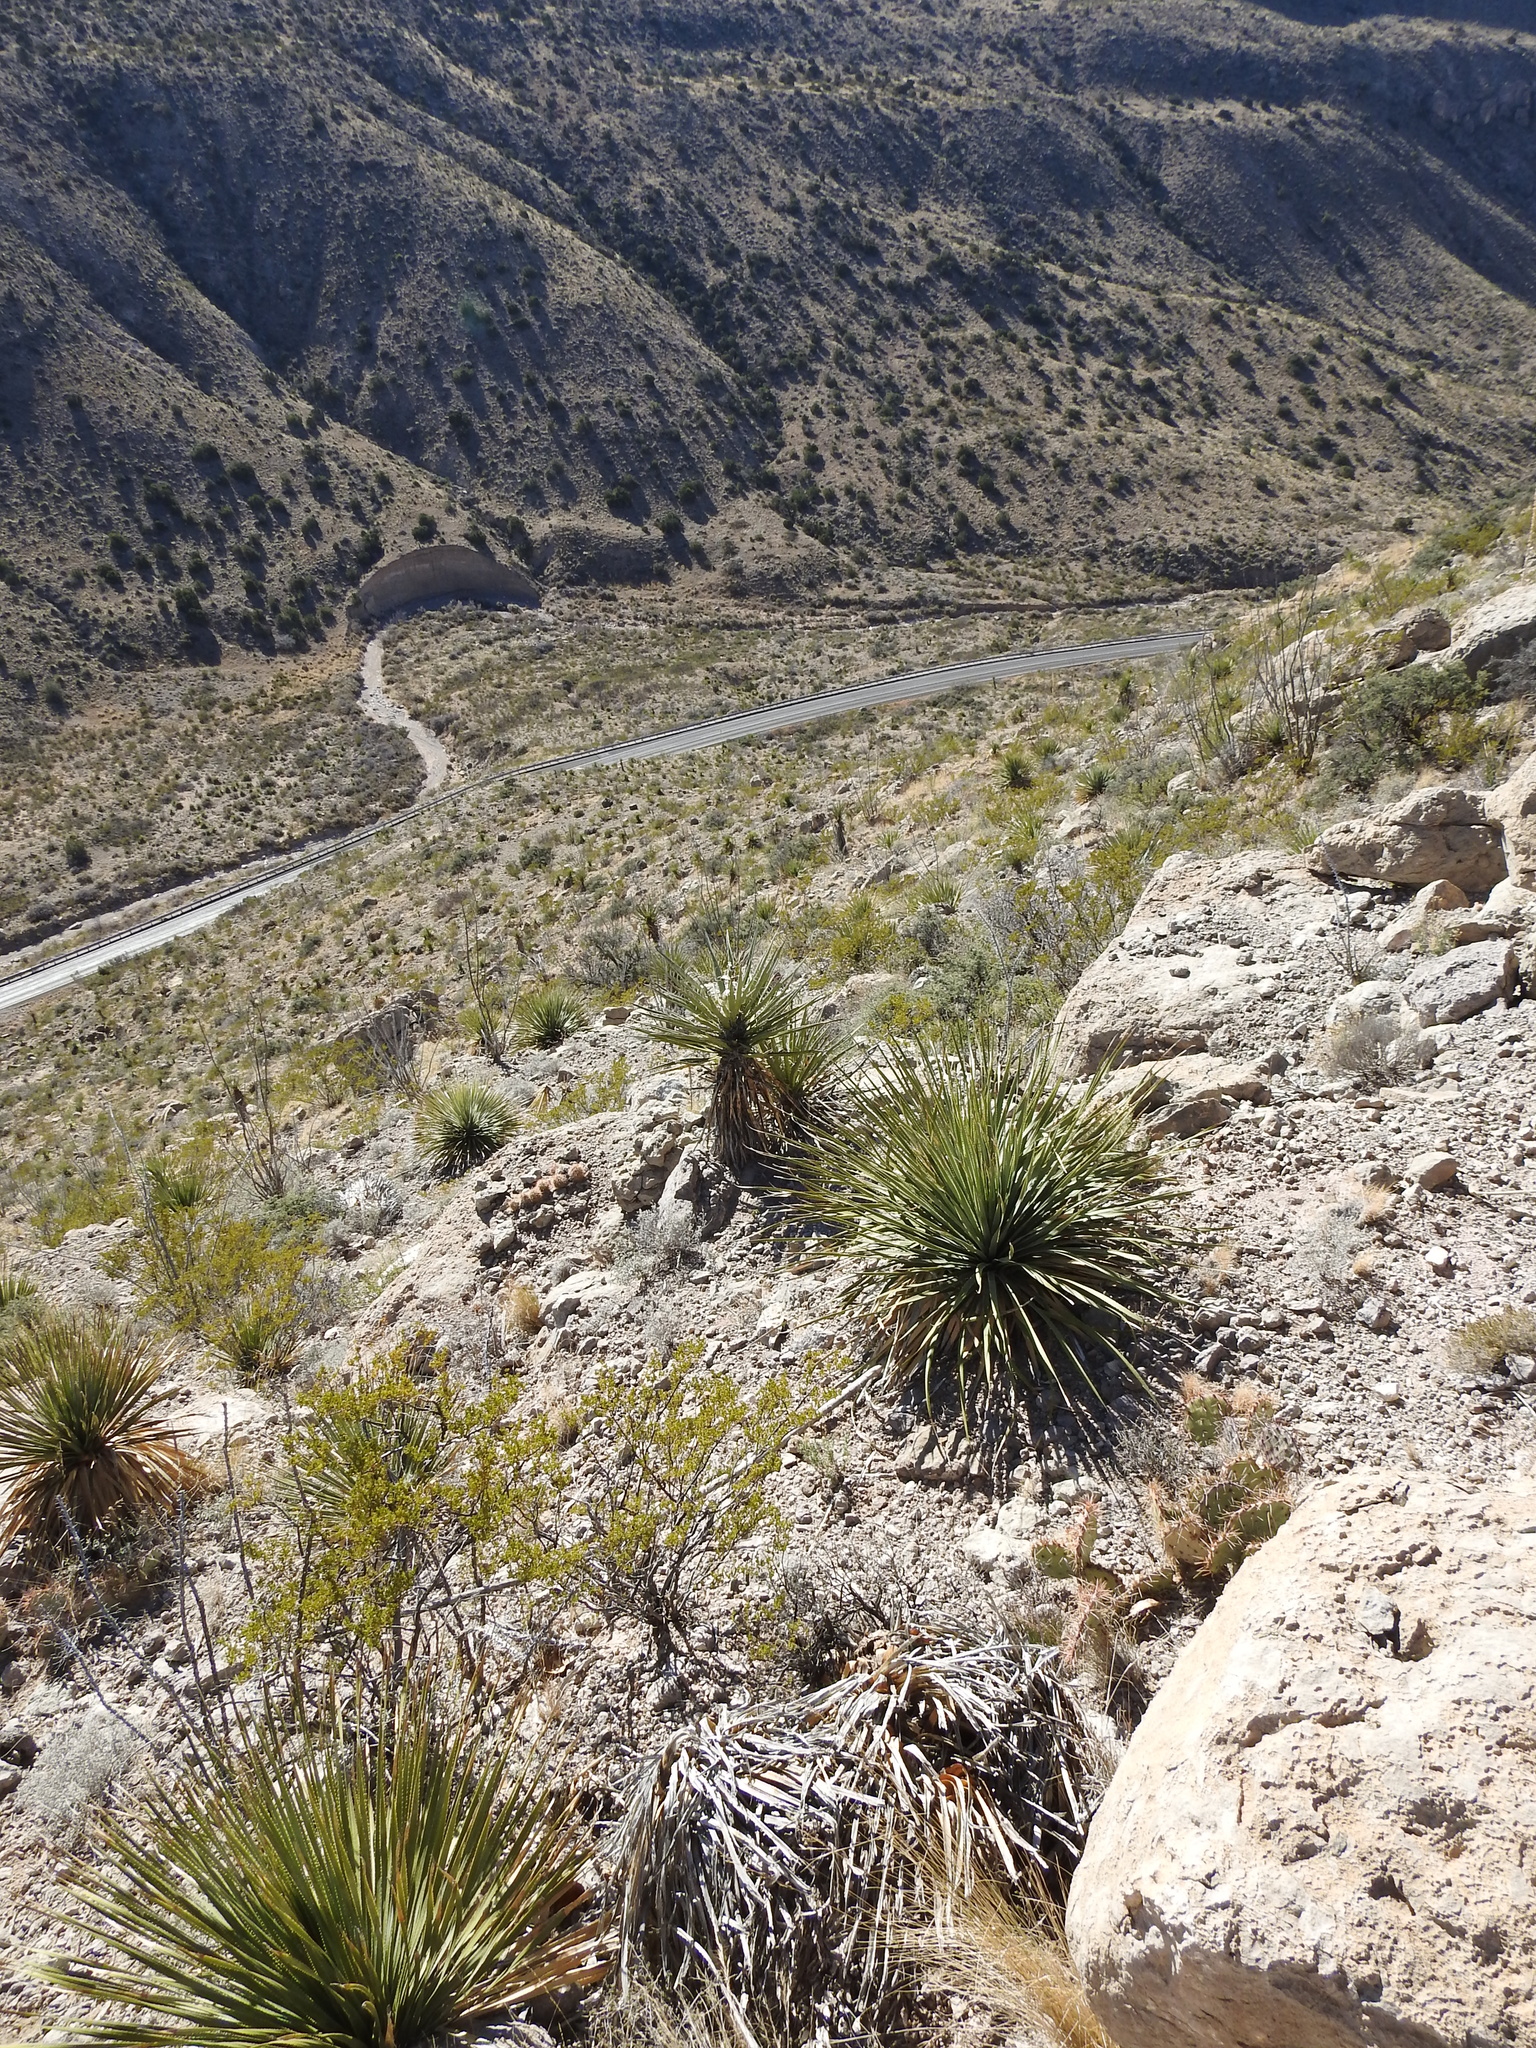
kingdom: Plantae
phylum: Tracheophyta
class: Liliopsida
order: Asparagales
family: Asparagaceae
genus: Yucca
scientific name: Yucca treculiana
